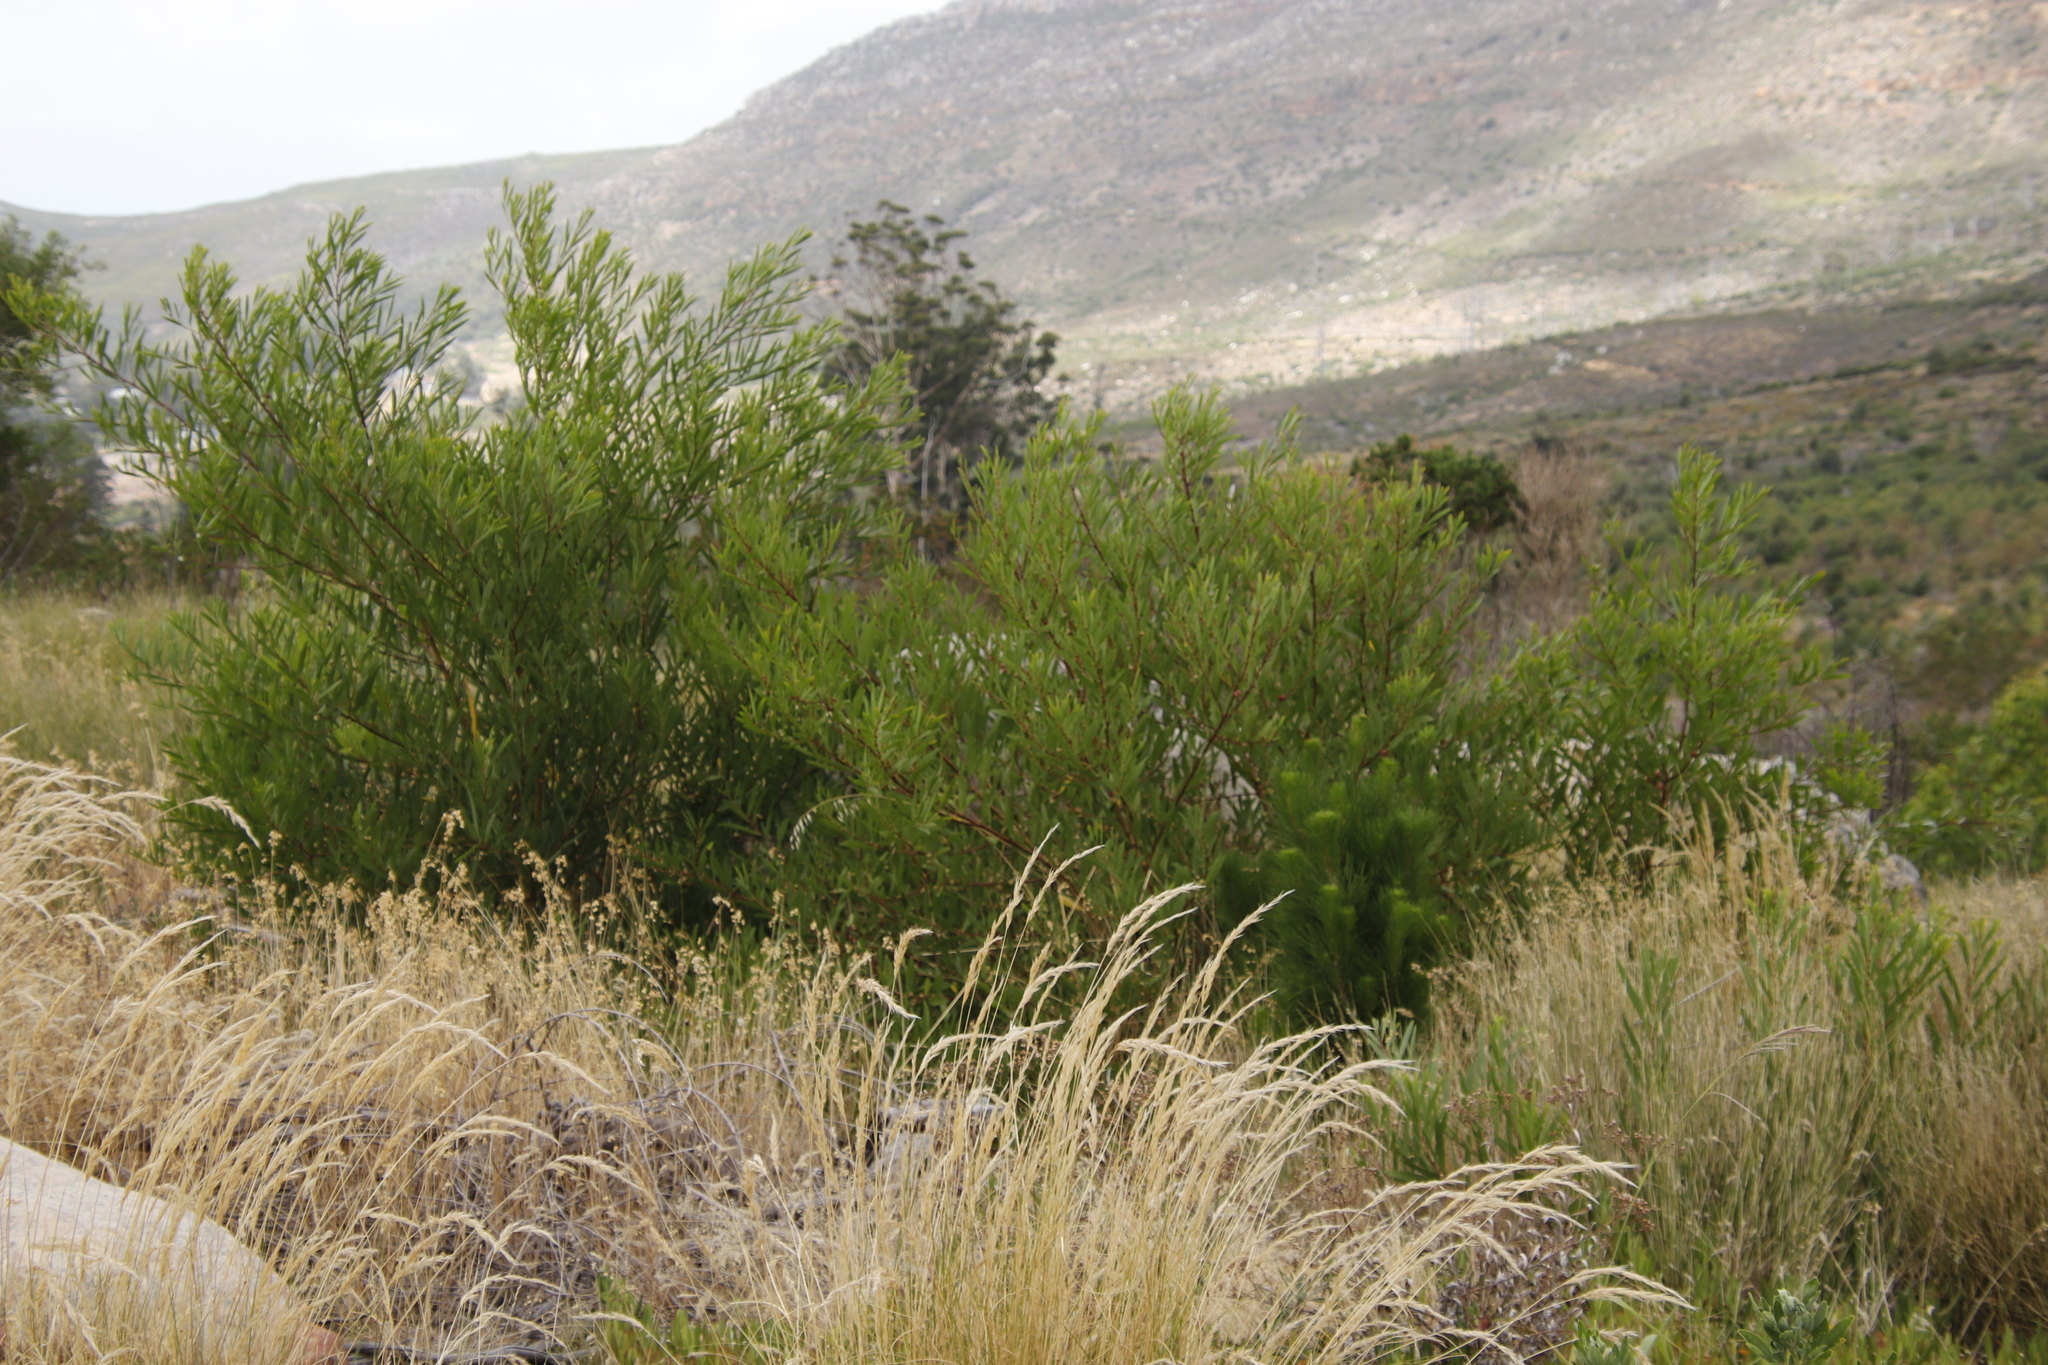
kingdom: Plantae
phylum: Tracheophyta
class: Magnoliopsida
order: Fabales
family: Fabaceae
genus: Acacia
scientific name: Acacia longifolia
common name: Sydney golden wattle
